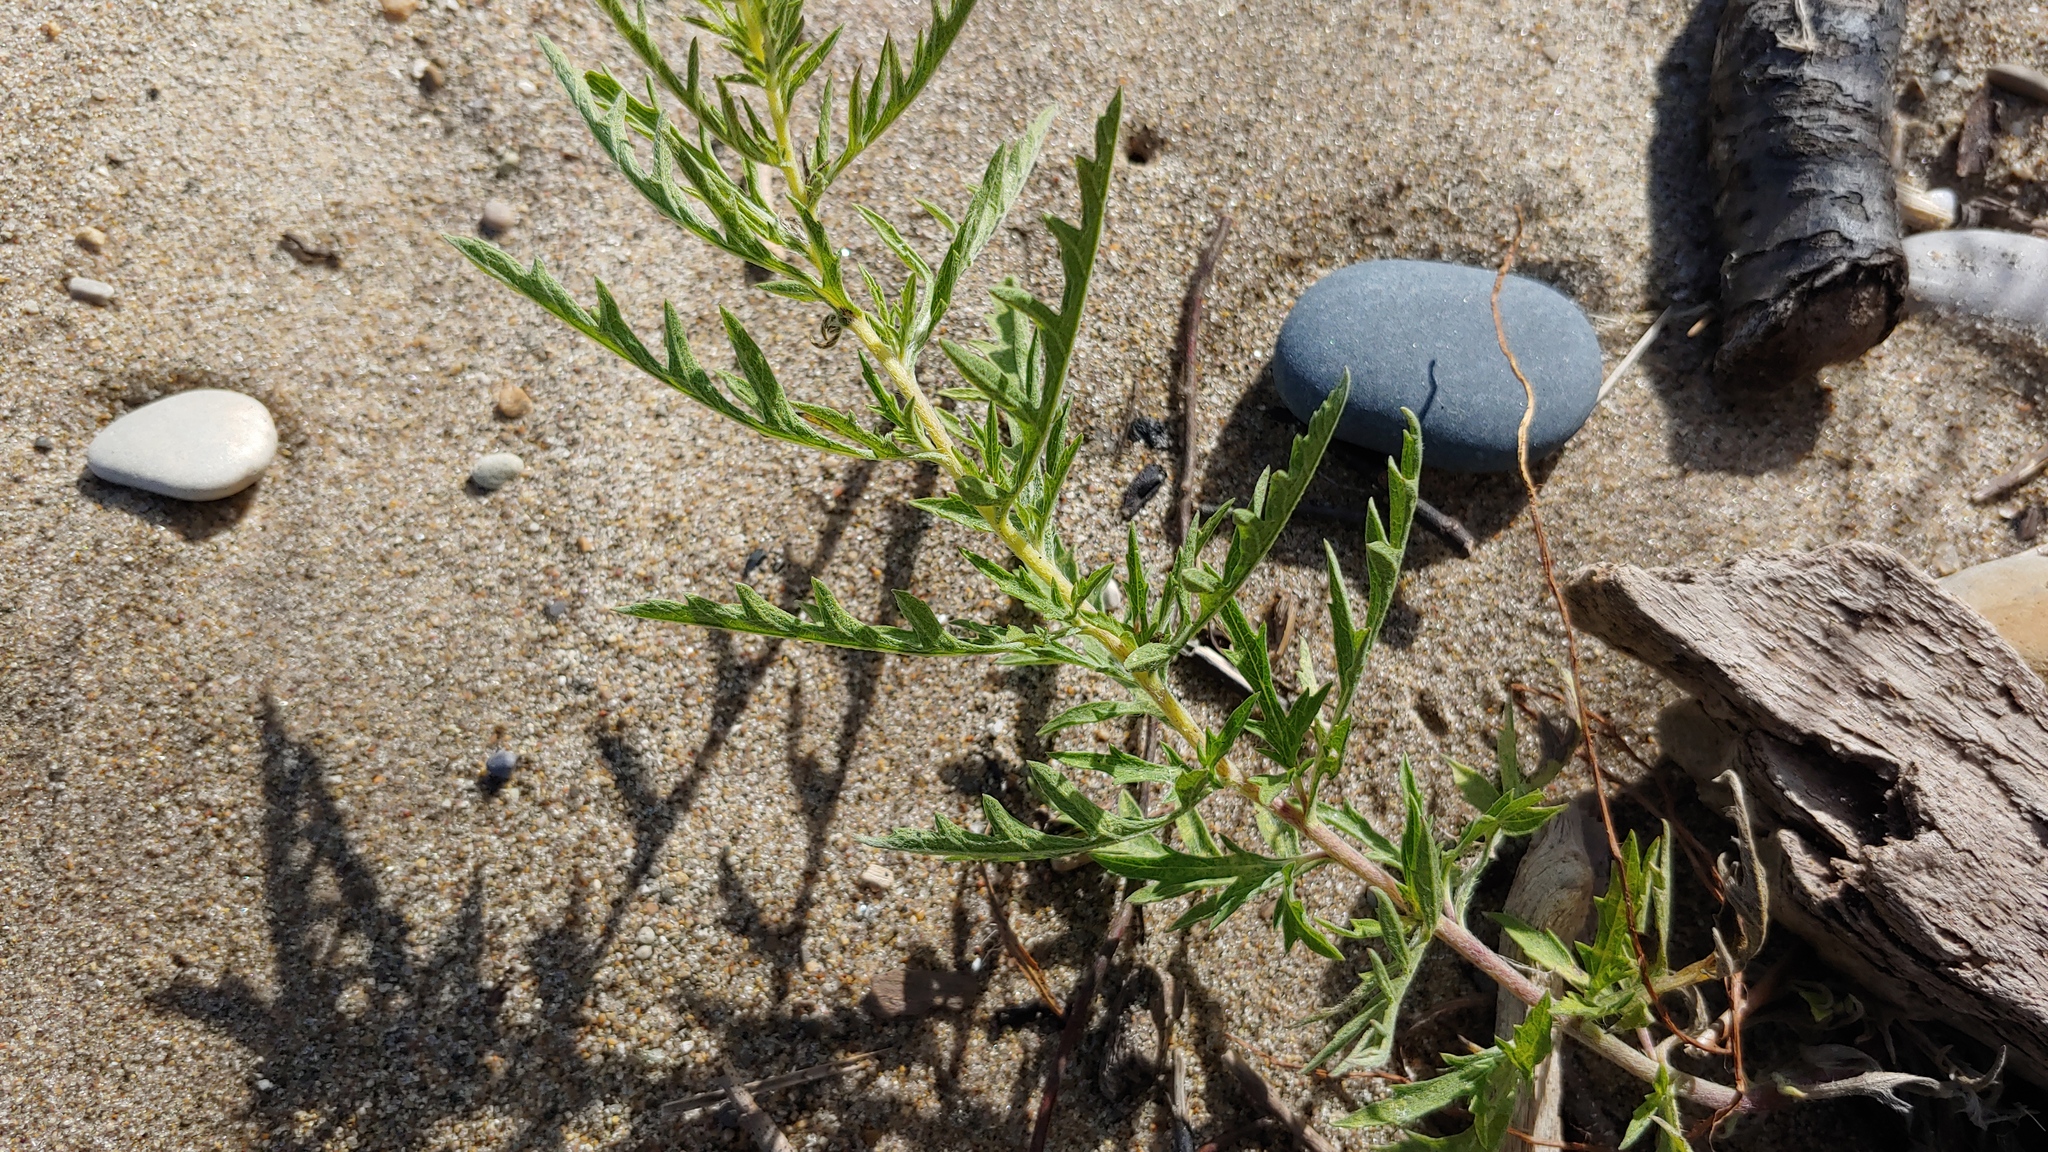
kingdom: Plantae
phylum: Tracheophyta
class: Magnoliopsida
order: Asterales
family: Asteraceae
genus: Ambrosia
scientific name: Ambrosia psilostachya
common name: Perennial ragweed
